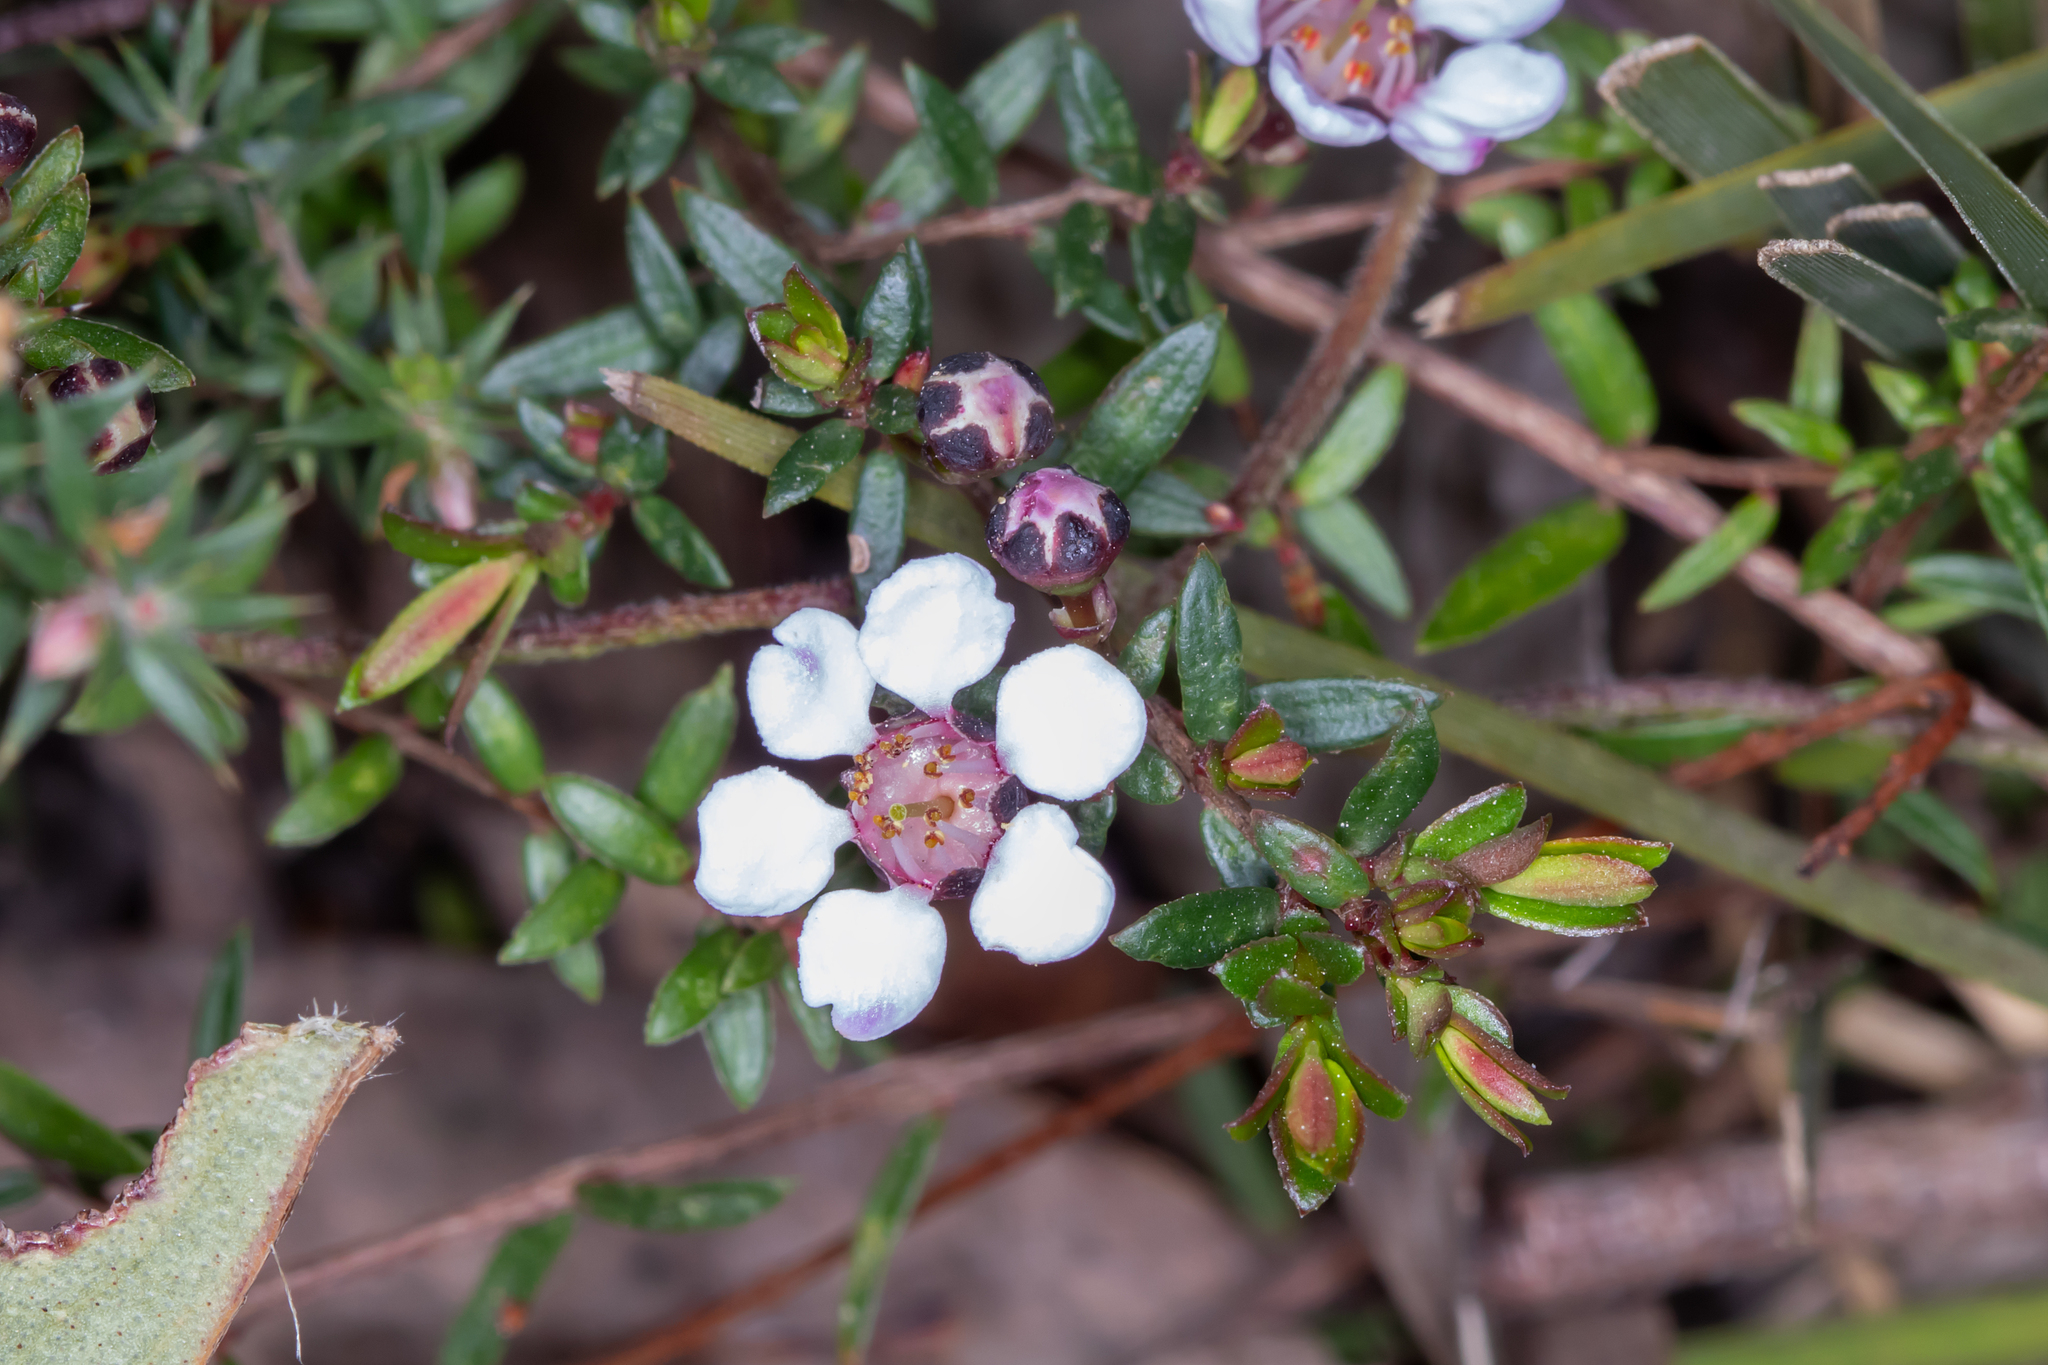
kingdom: Plantae
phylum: Tracheophyta
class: Magnoliopsida
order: Myrtales
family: Myrtaceae
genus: Euryomyrtus
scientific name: Euryomyrtus ramosissima
